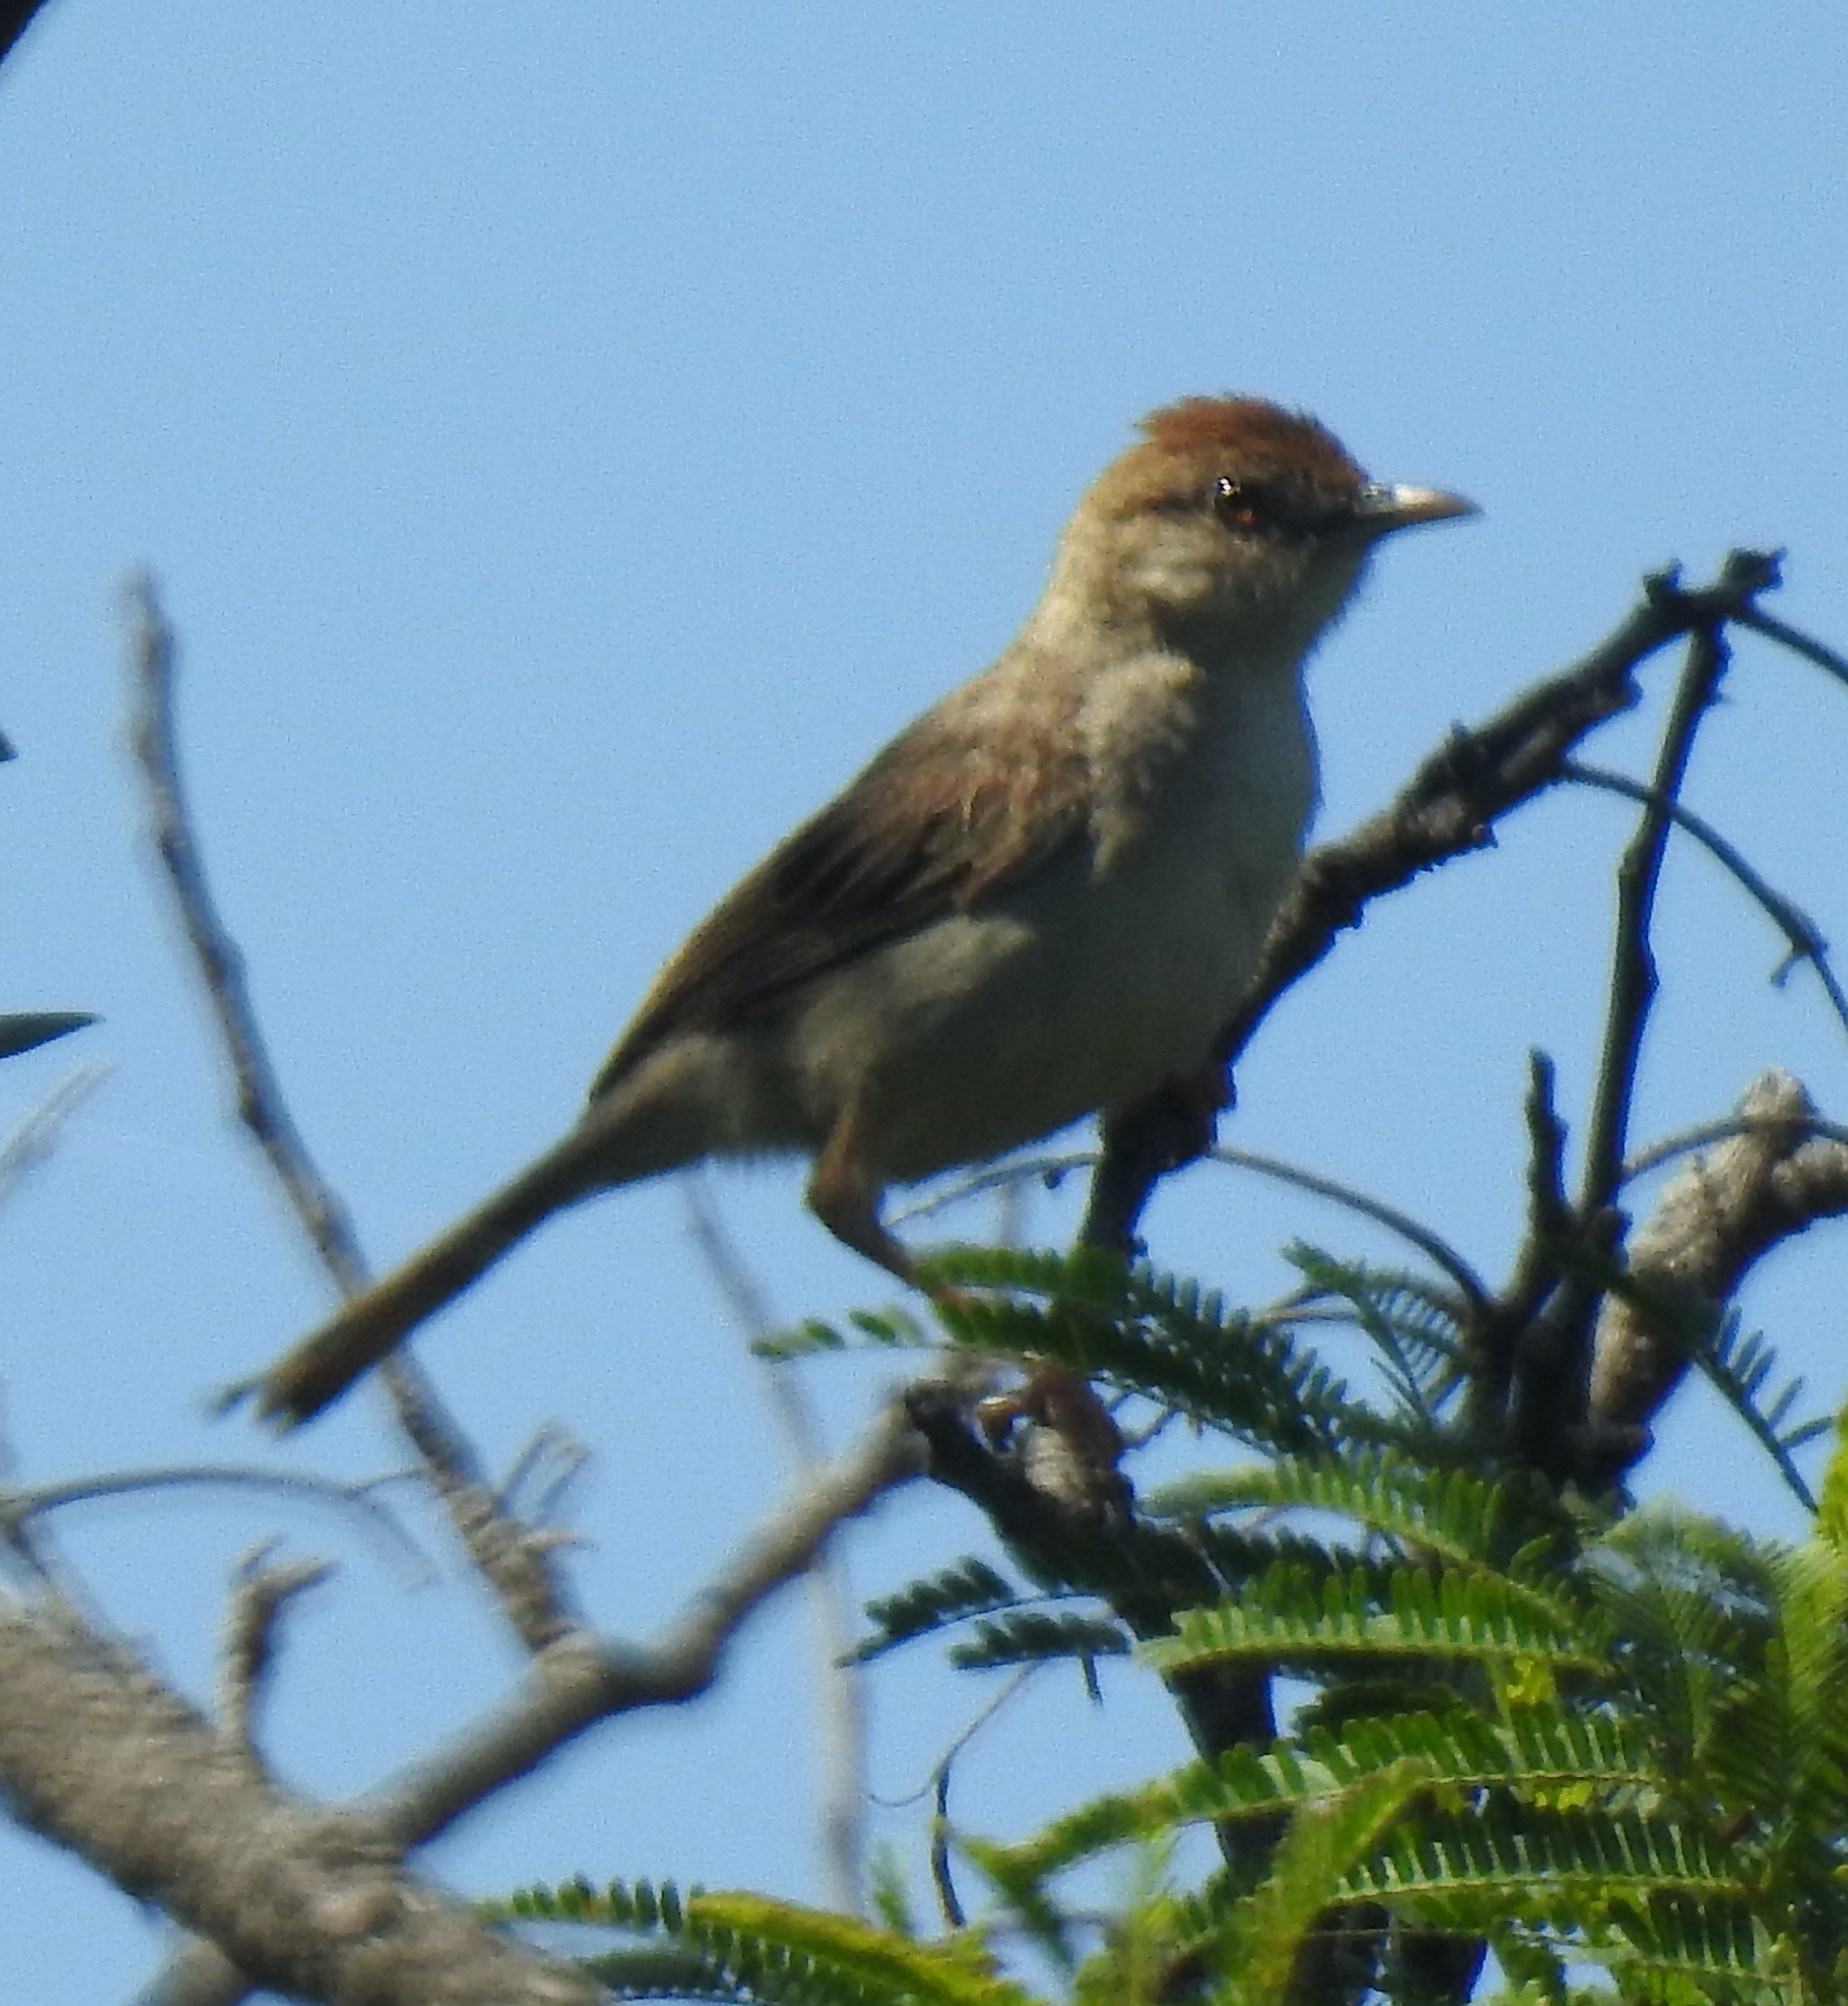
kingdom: Animalia
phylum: Chordata
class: Aves
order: Passeriformes
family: Cisticolidae
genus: Cisticola
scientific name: Cisticola chiniana
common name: Rattling cisticola
